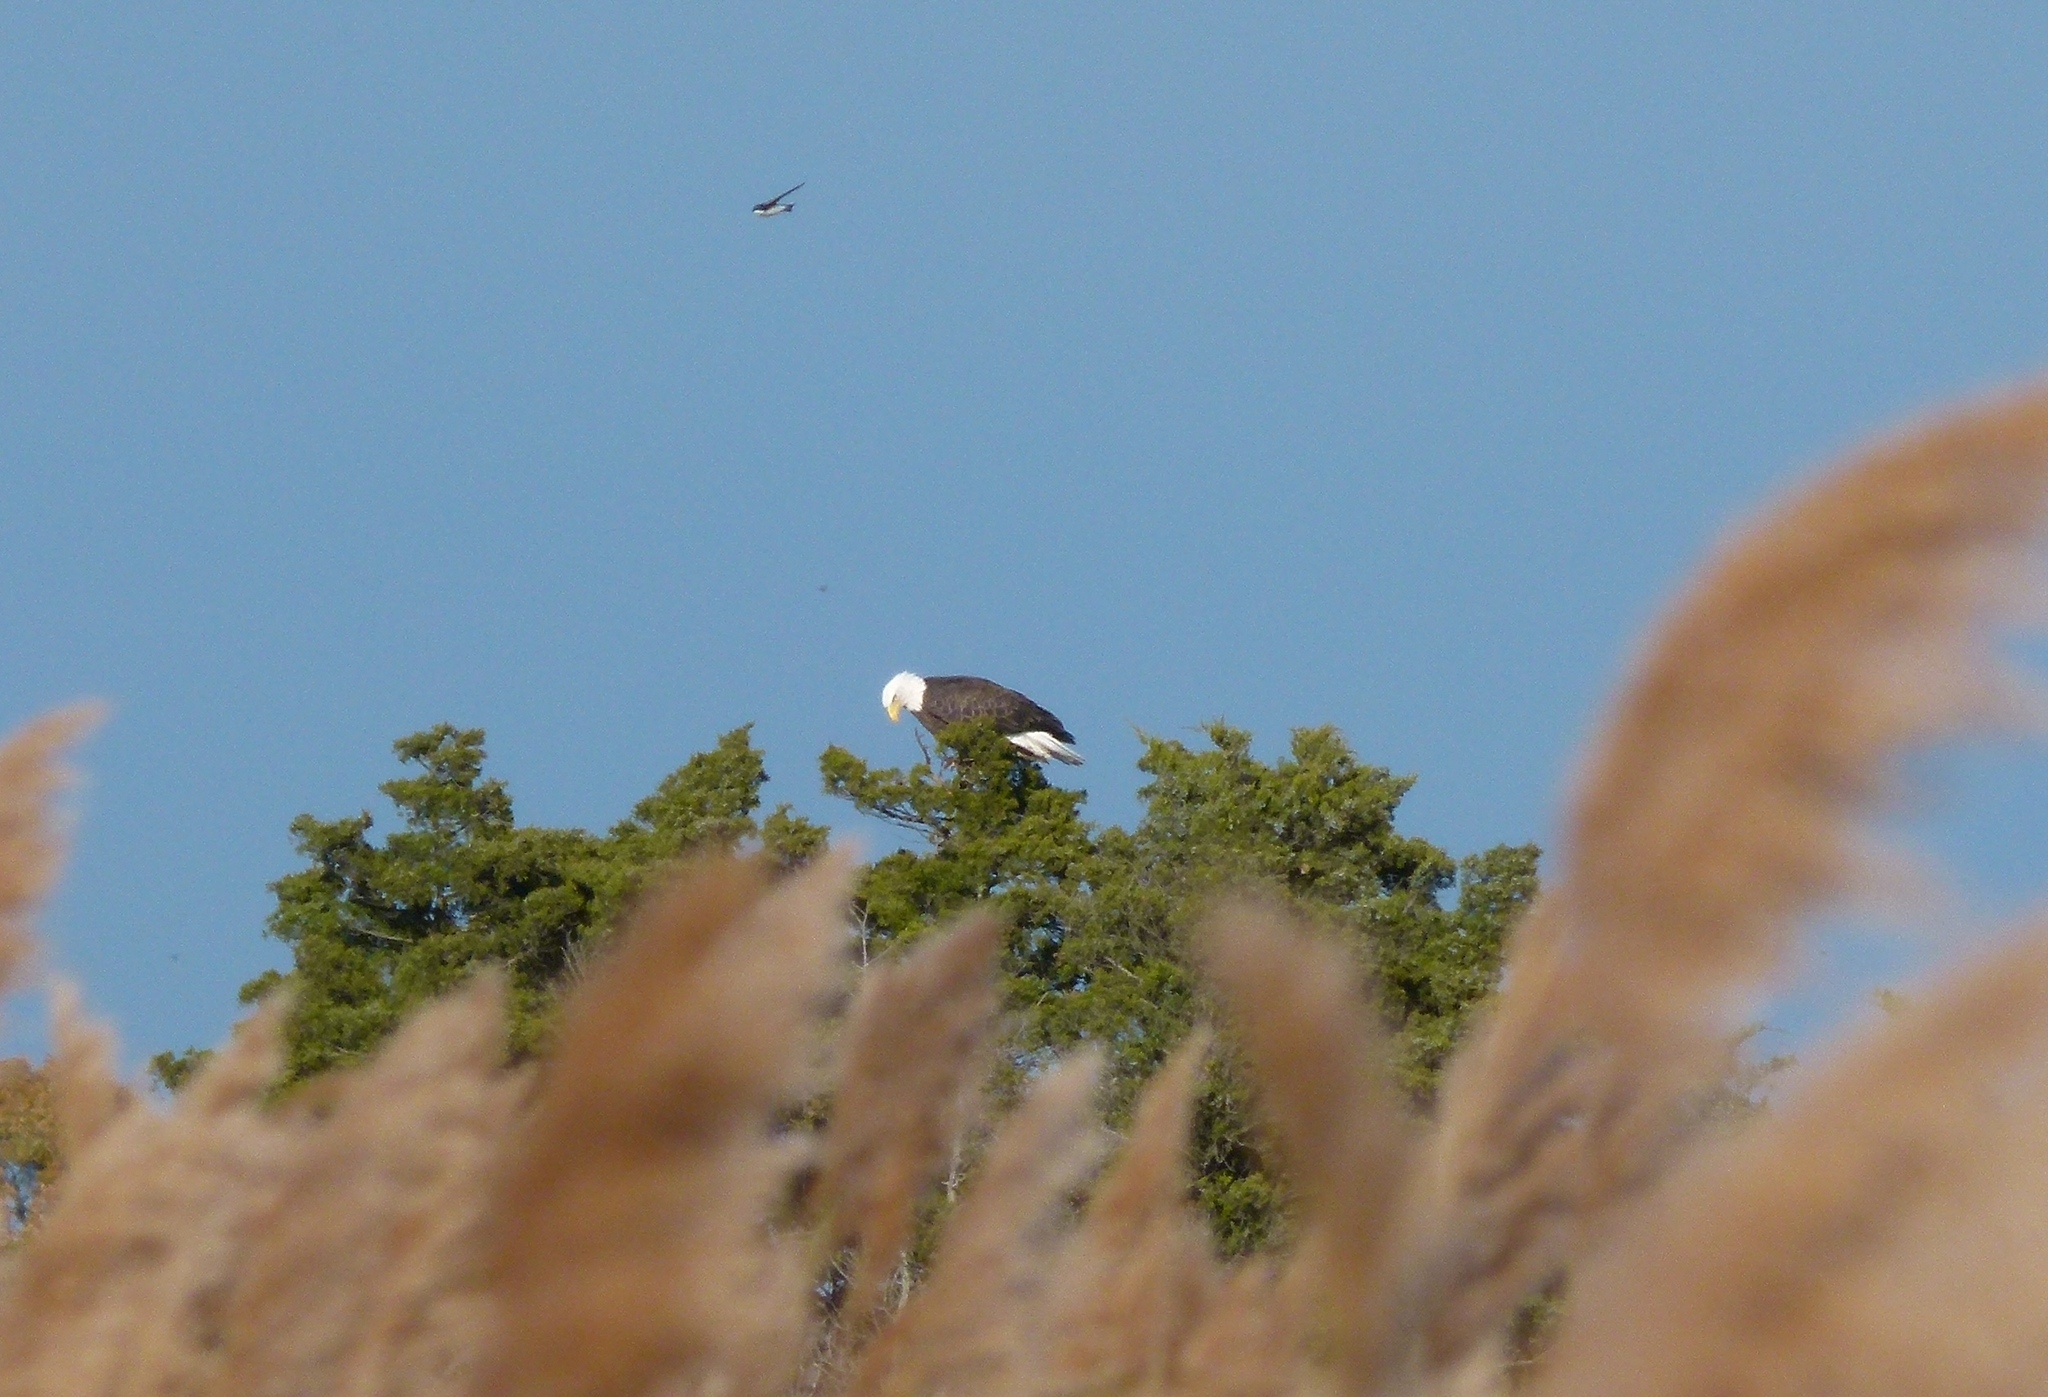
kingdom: Animalia
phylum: Chordata
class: Aves
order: Accipitriformes
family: Accipitridae
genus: Haliaeetus
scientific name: Haliaeetus leucocephalus
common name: Bald eagle
